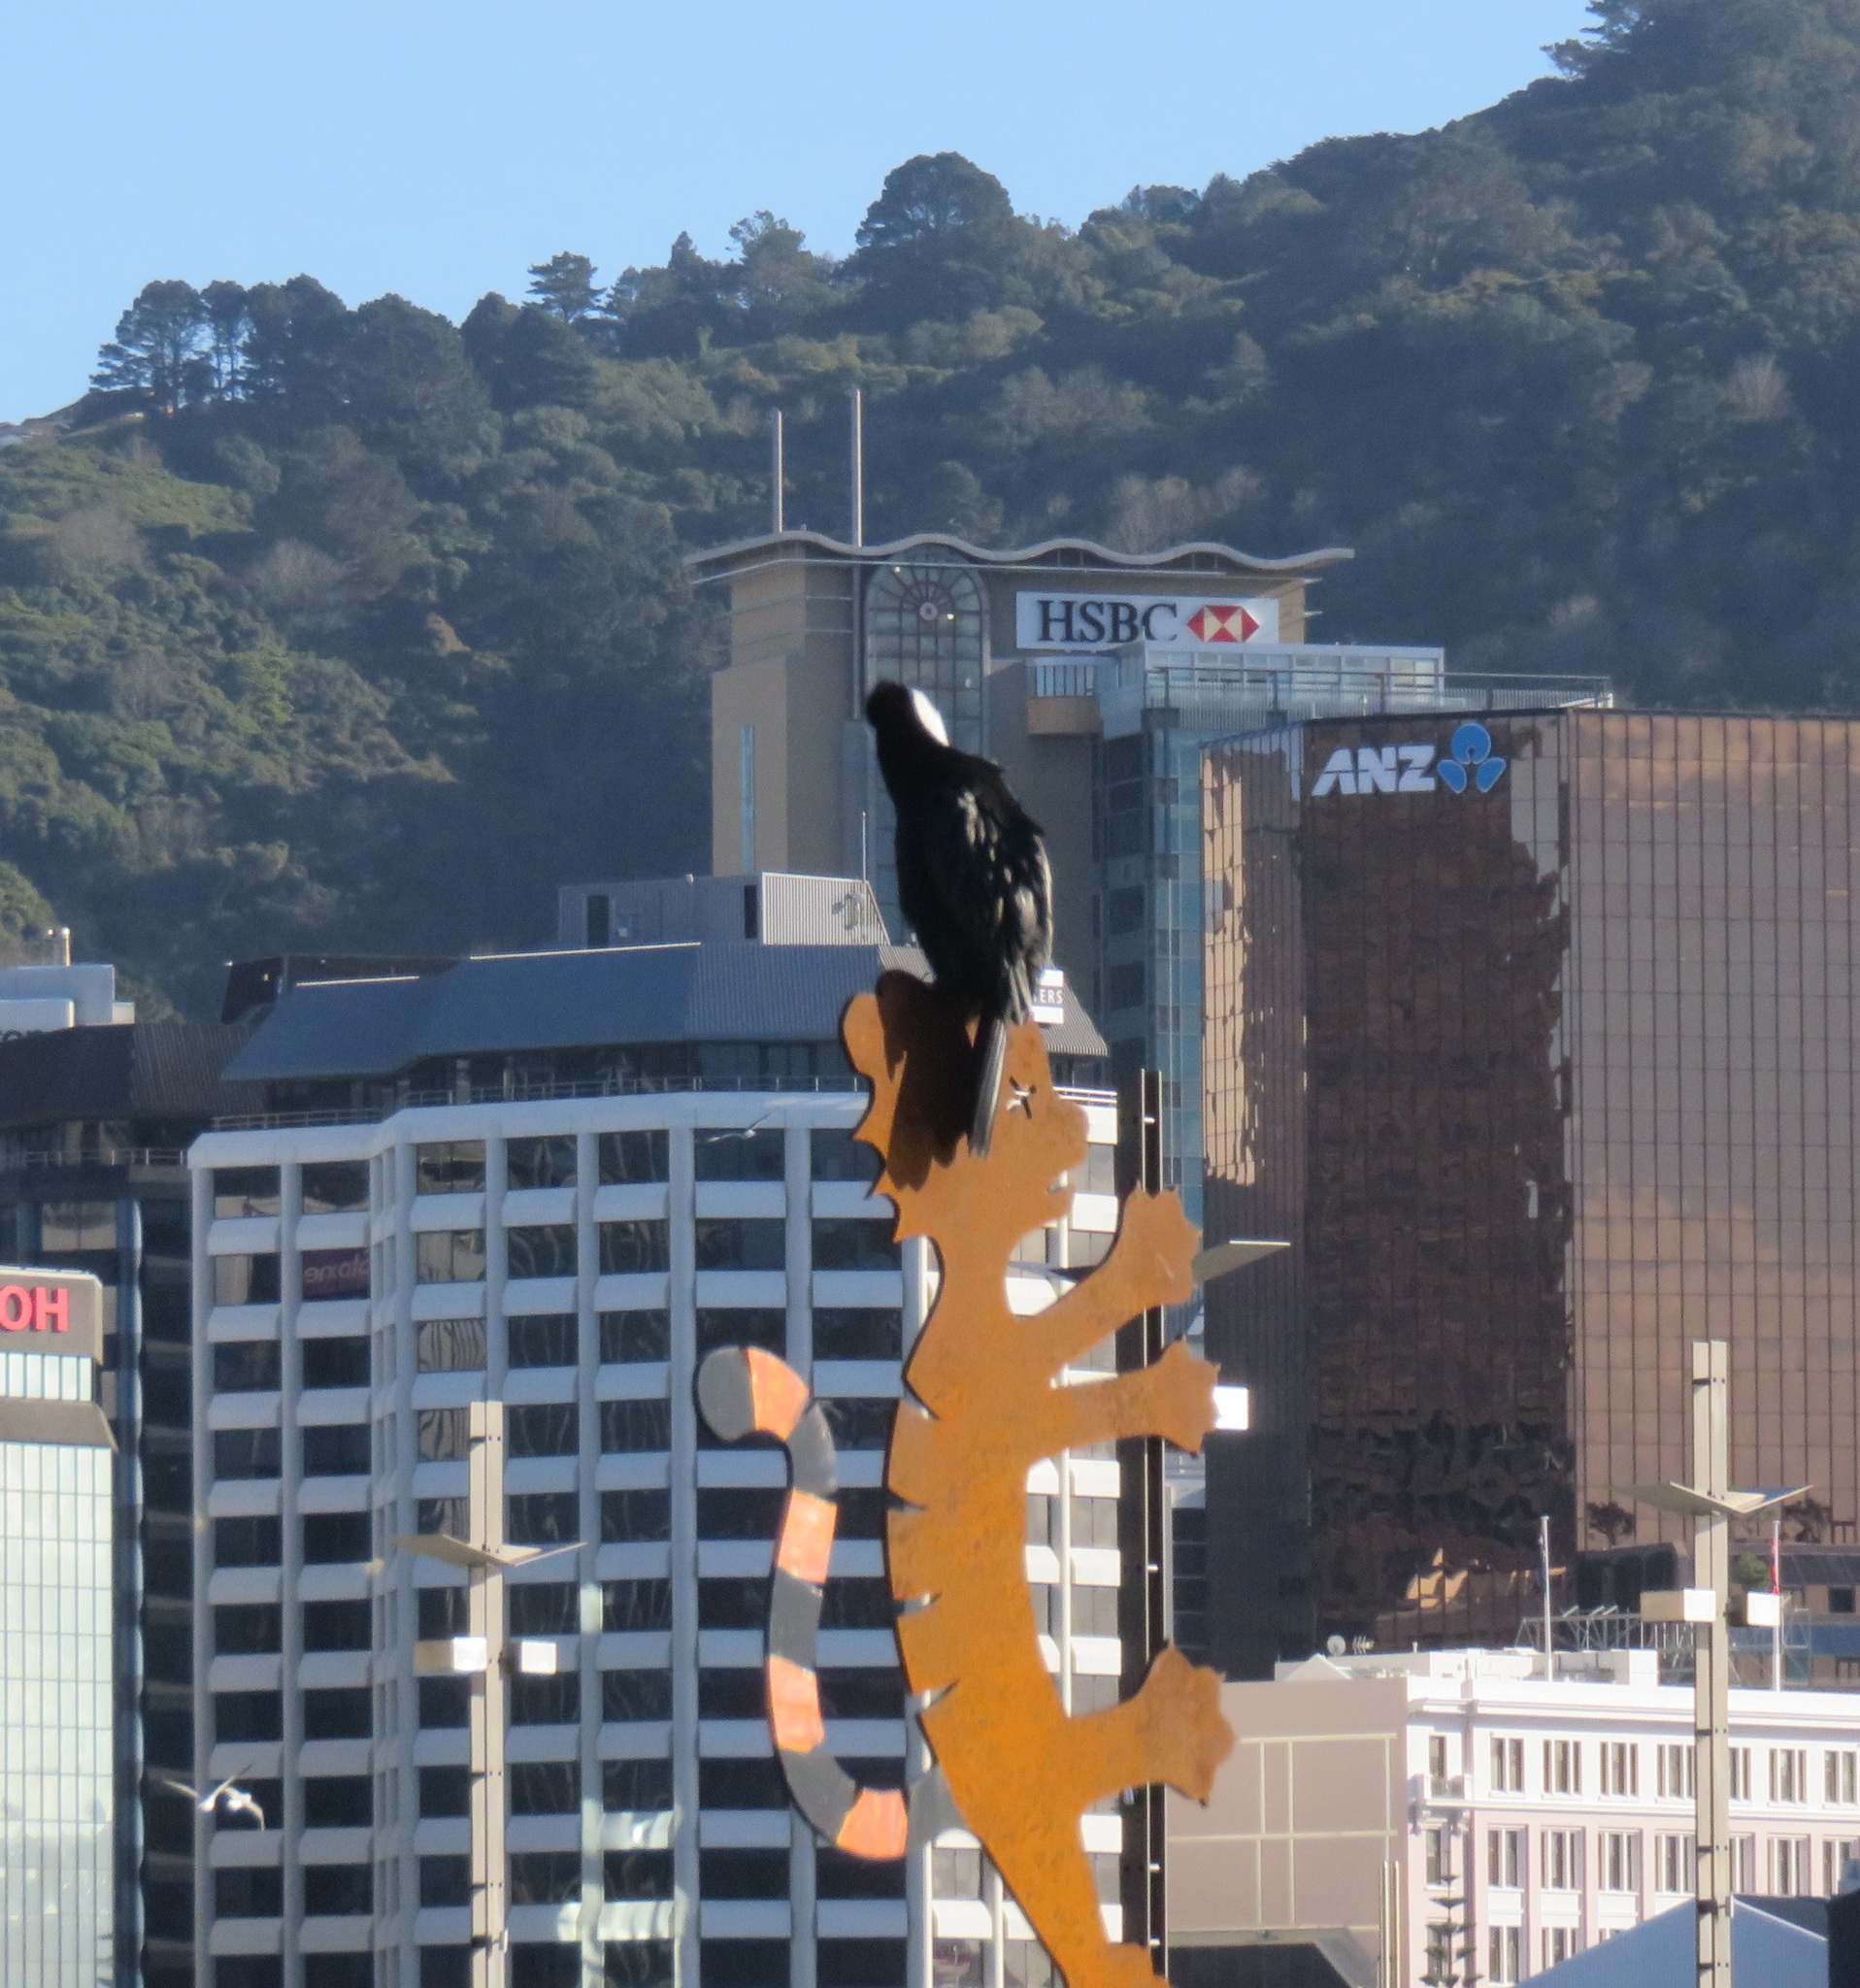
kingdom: Animalia
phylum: Chordata
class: Aves
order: Suliformes
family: Phalacrocoracidae
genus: Microcarbo
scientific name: Microcarbo melanoleucos
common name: Little pied cormorant
